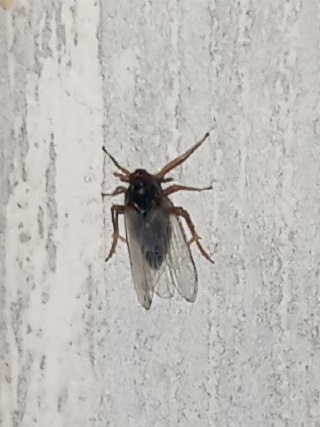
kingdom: Animalia
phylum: Arthropoda
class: Insecta
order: Hemiptera
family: Delphacidae
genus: Pissonotus
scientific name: Pissonotus piceus
